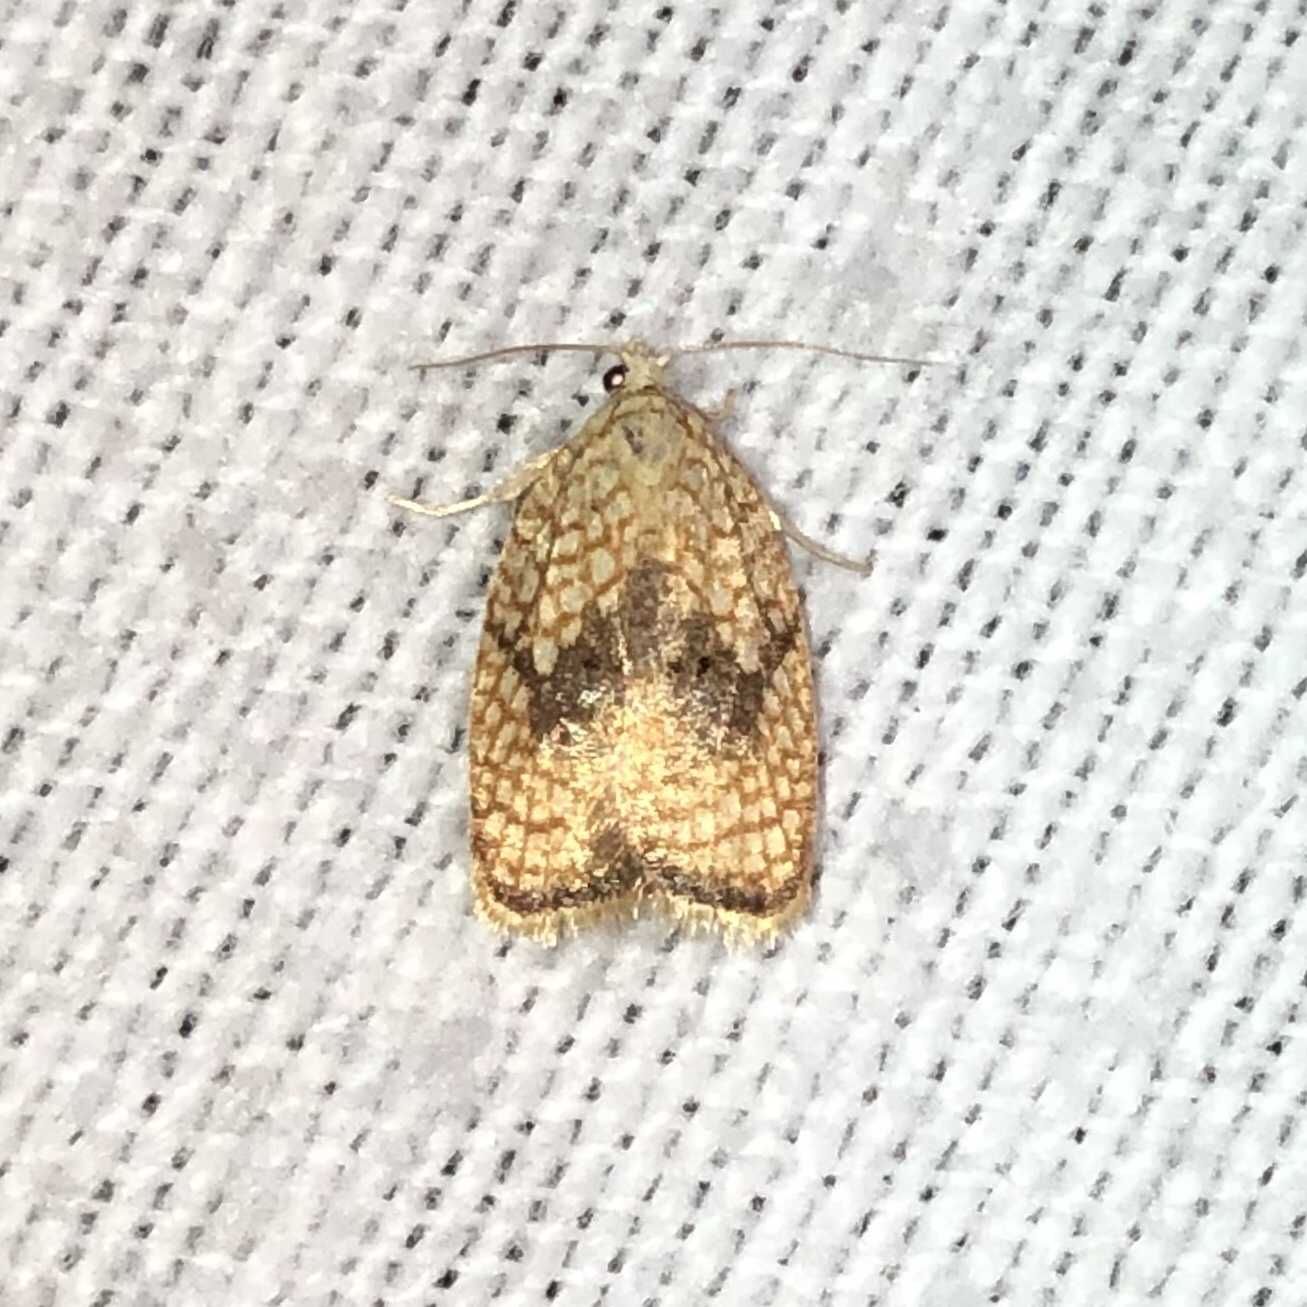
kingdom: Animalia
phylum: Arthropoda
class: Insecta
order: Lepidoptera
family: Tortricidae
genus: Acleris
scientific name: Acleris forsskaleana
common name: Maple button
